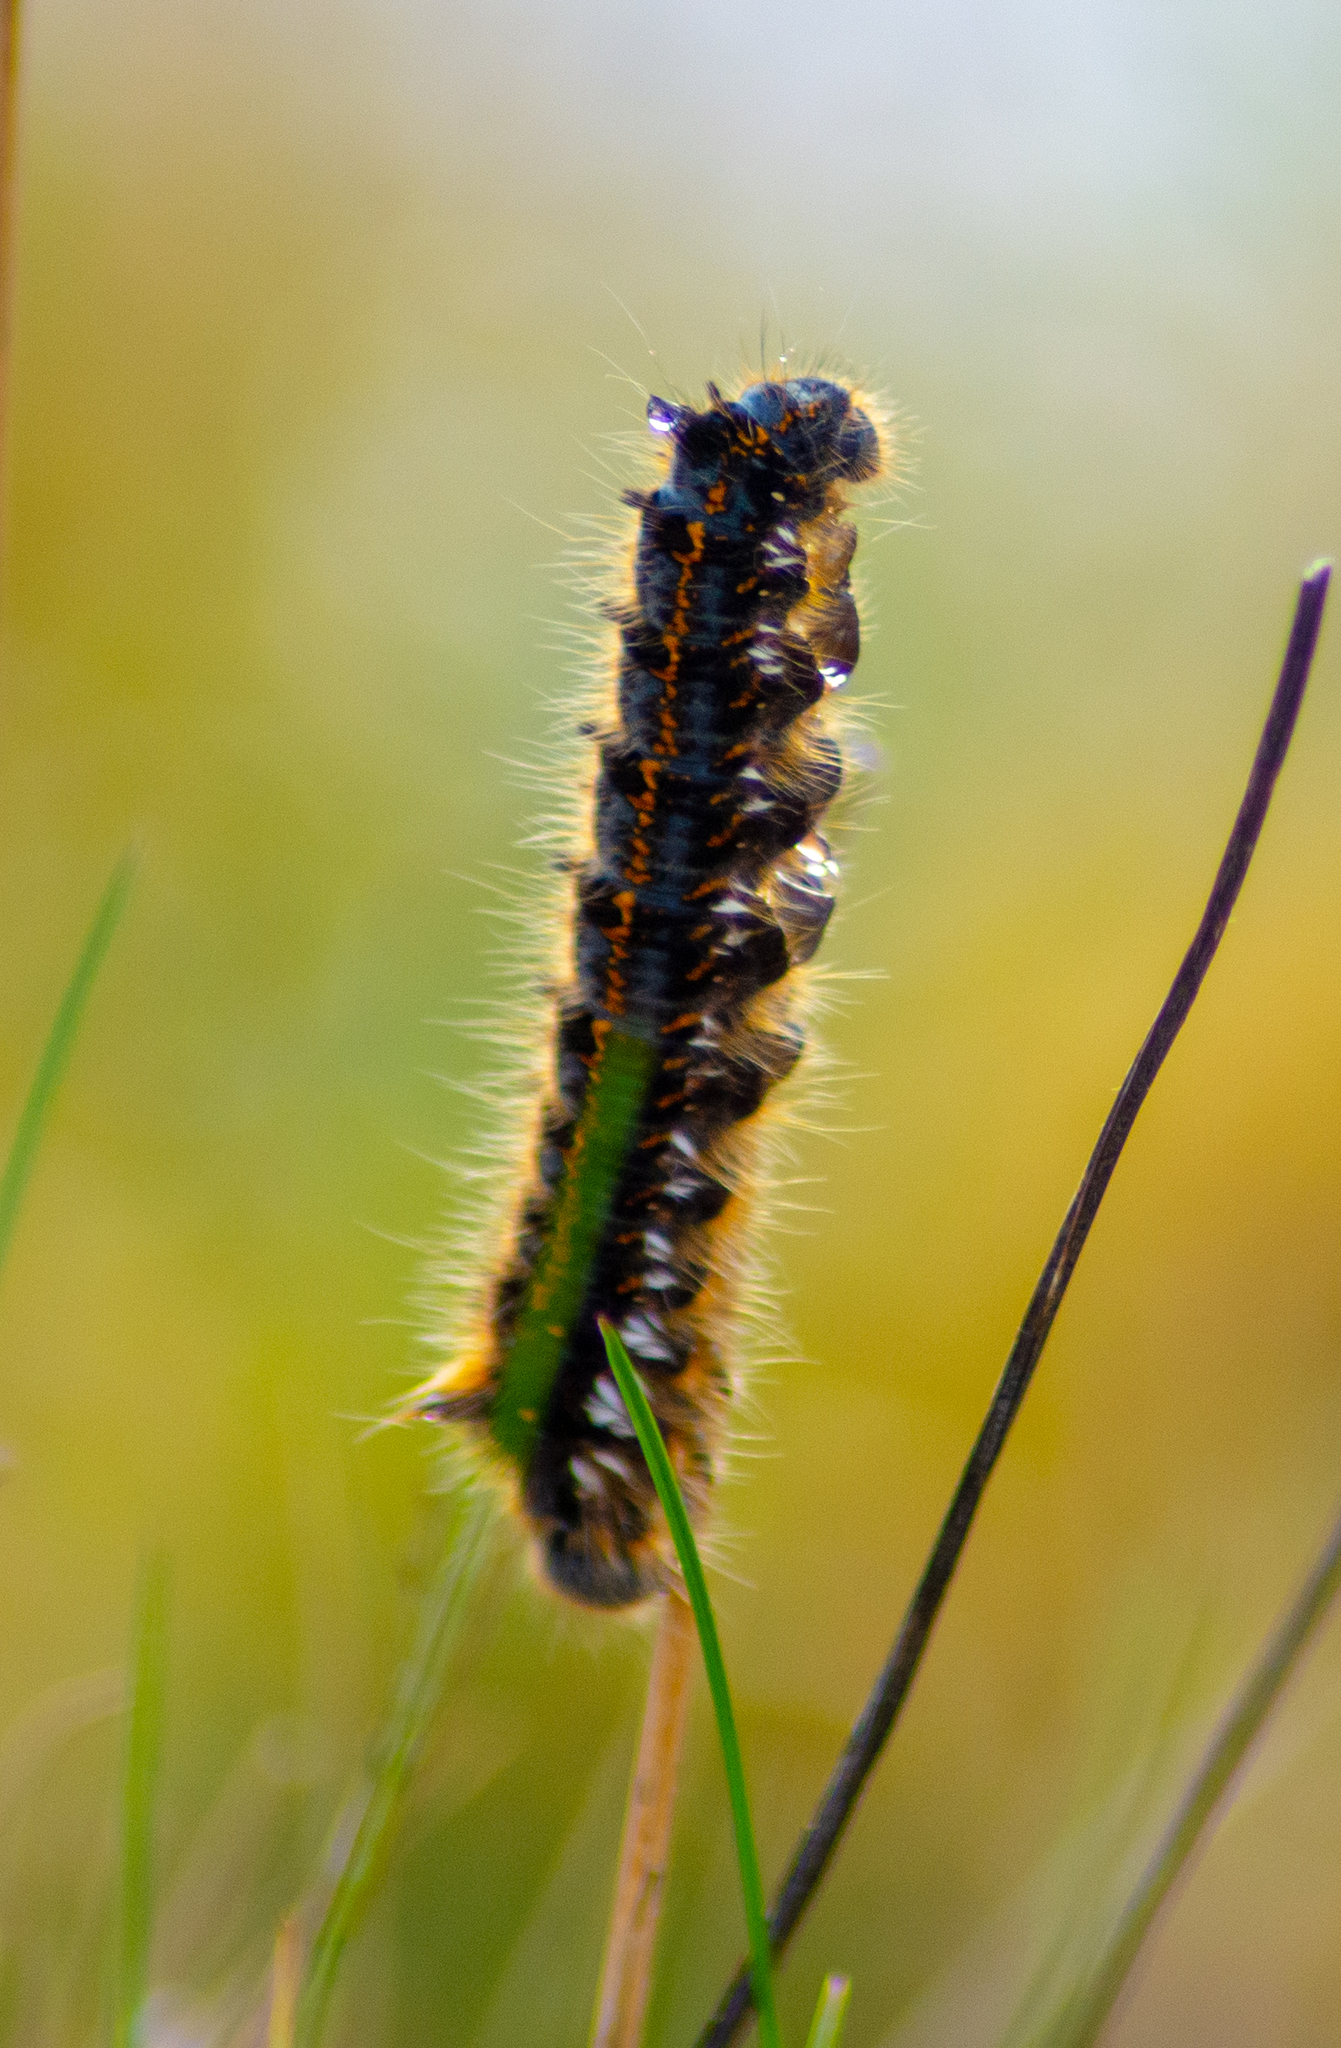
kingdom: Animalia
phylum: Arthropoda
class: Insecta
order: Lepidoptera
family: Lasiocampidae
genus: Euthrix
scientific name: Euthrix potatoria
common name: Drinker
